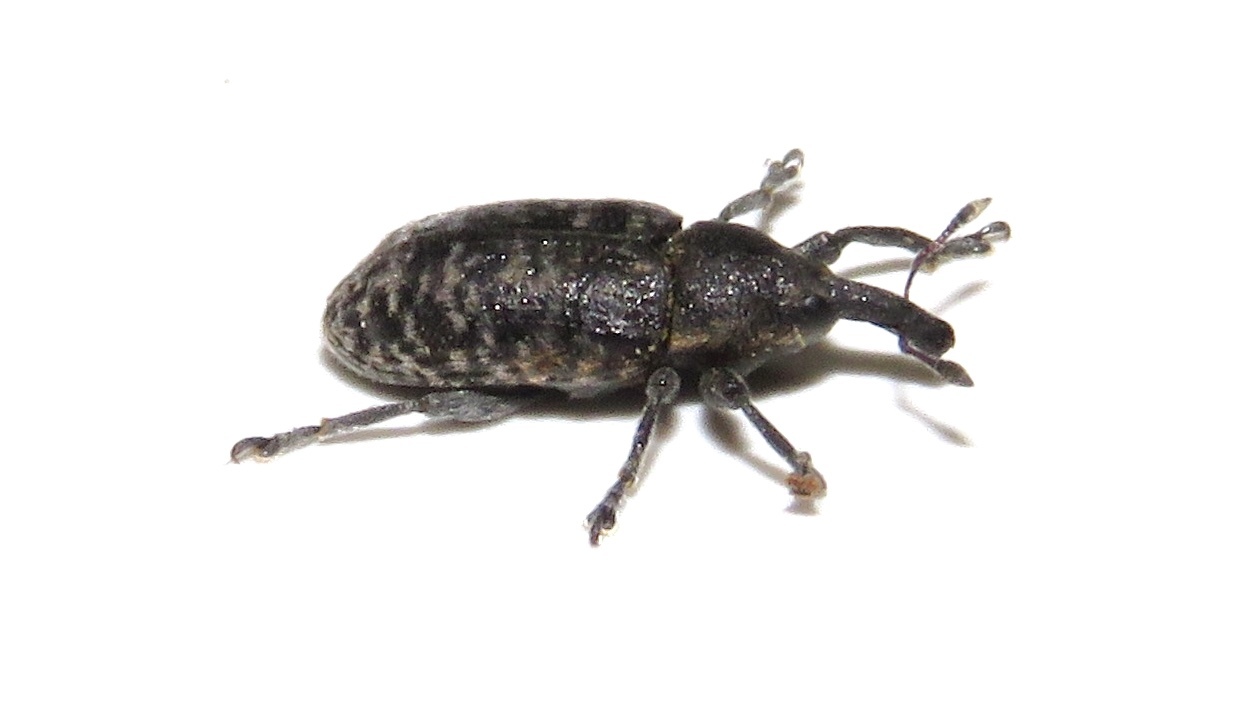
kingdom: Animalia
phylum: Arthropoda
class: Insecta
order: Coleoptera
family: Curculionidae
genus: Larinus
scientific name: Larinus carlinae
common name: Weevil
